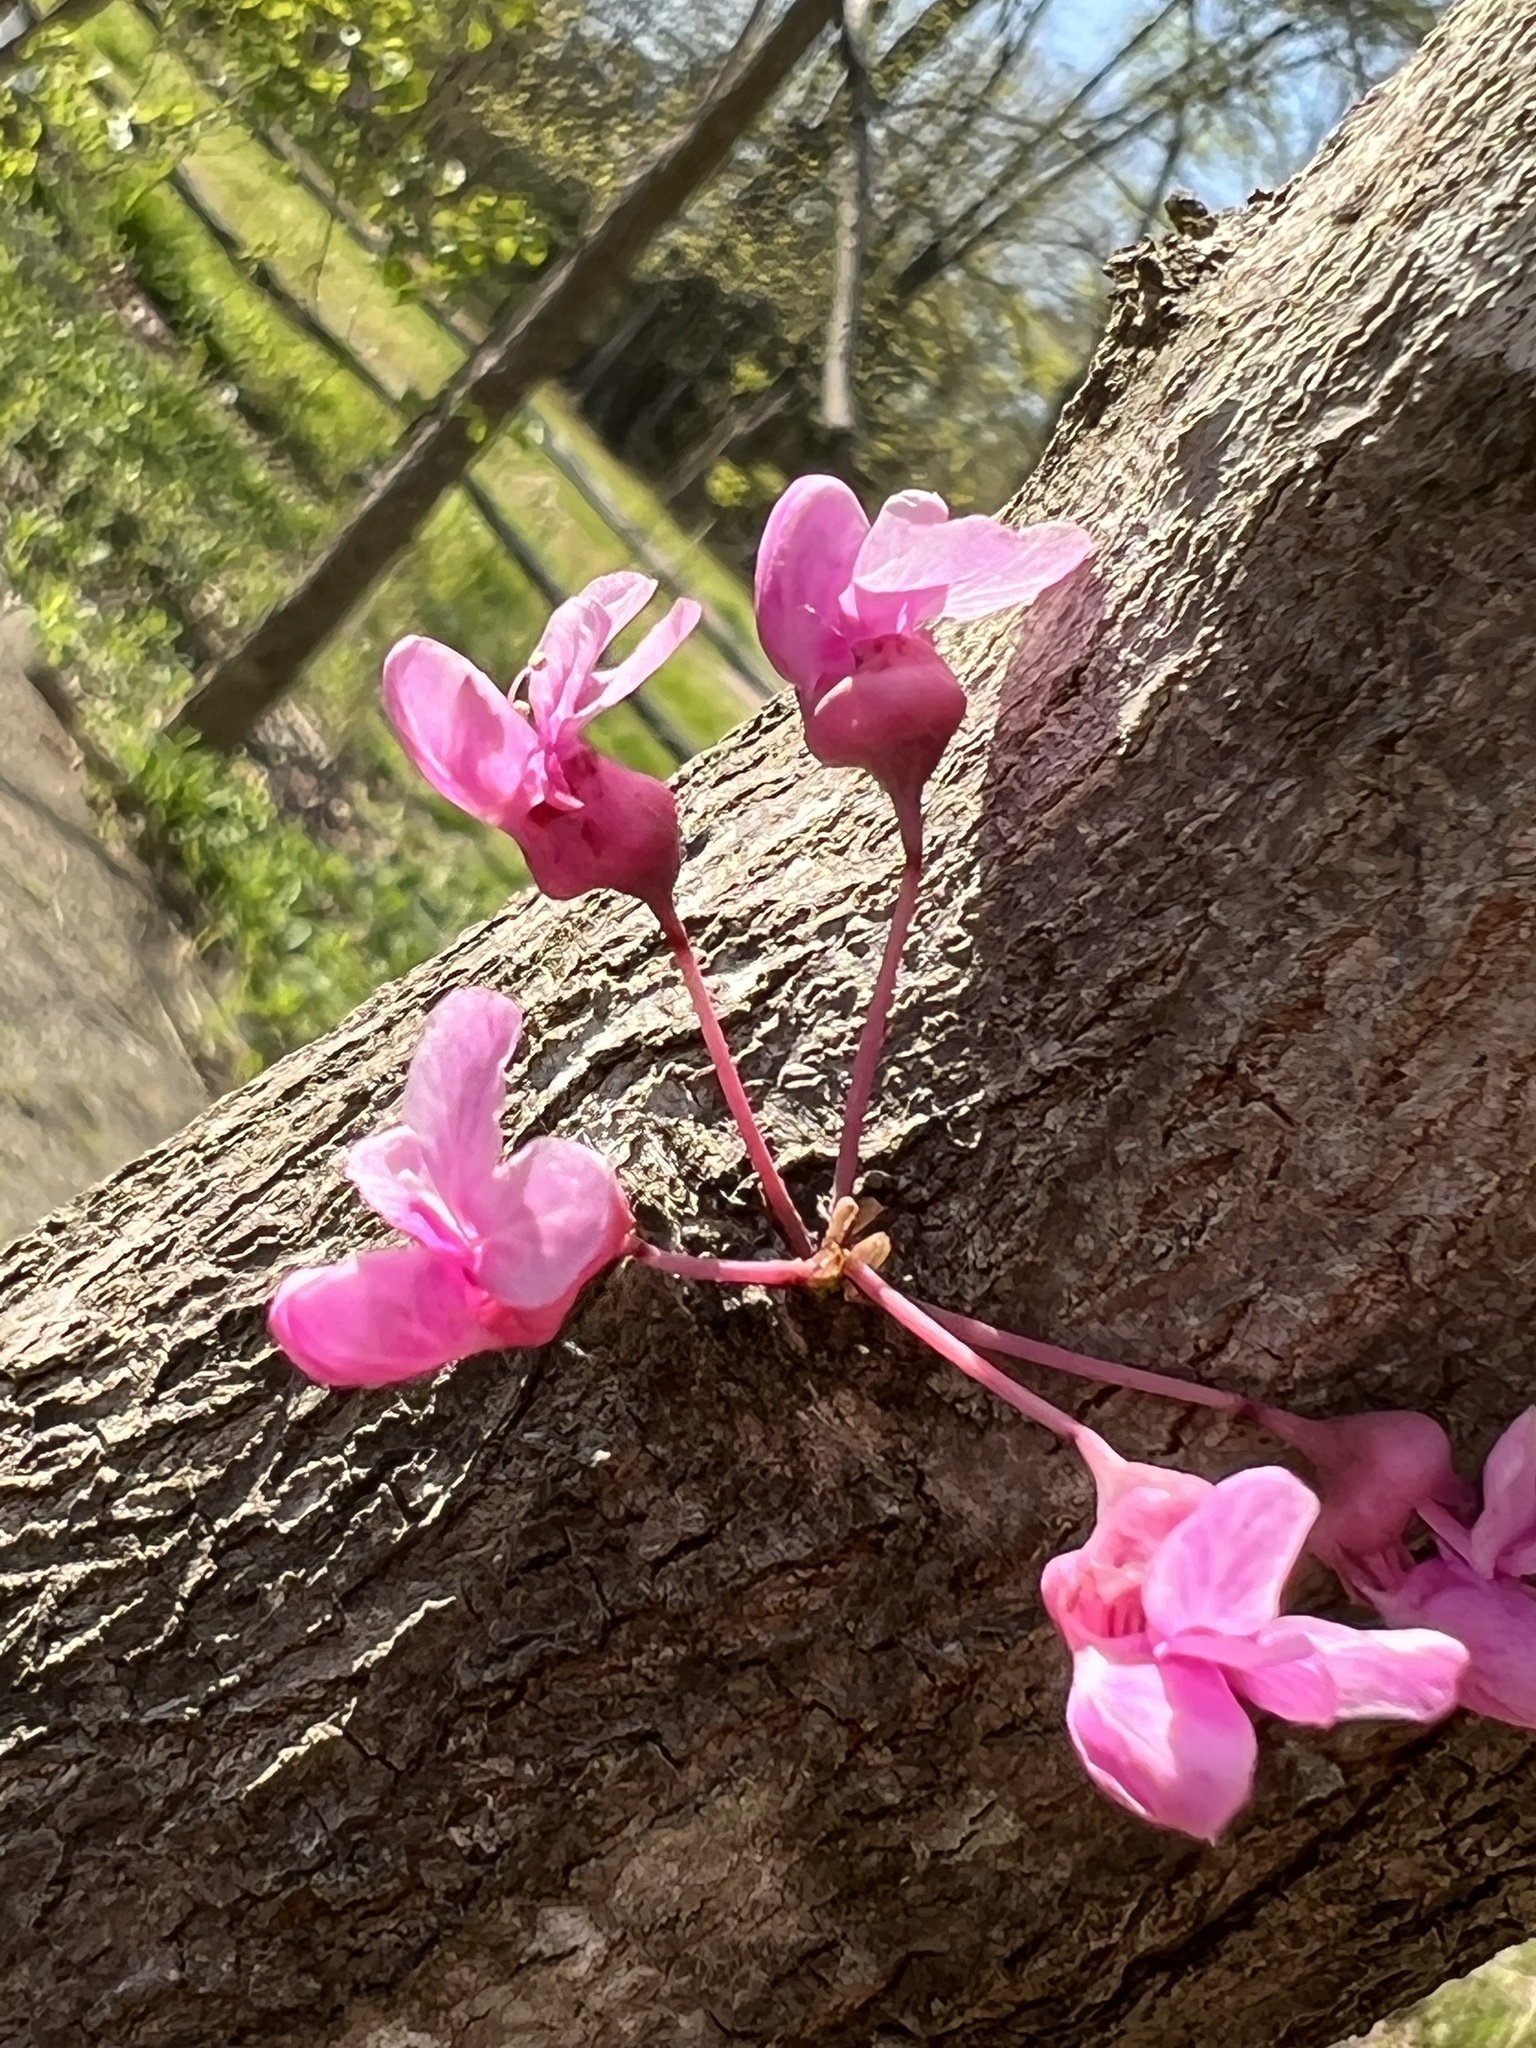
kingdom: Plantae
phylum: Tracheophyta
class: Magnoliopsida
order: Fabales
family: Fabaceae
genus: Cercis
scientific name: Cercis canadensis
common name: Eastern redbud
